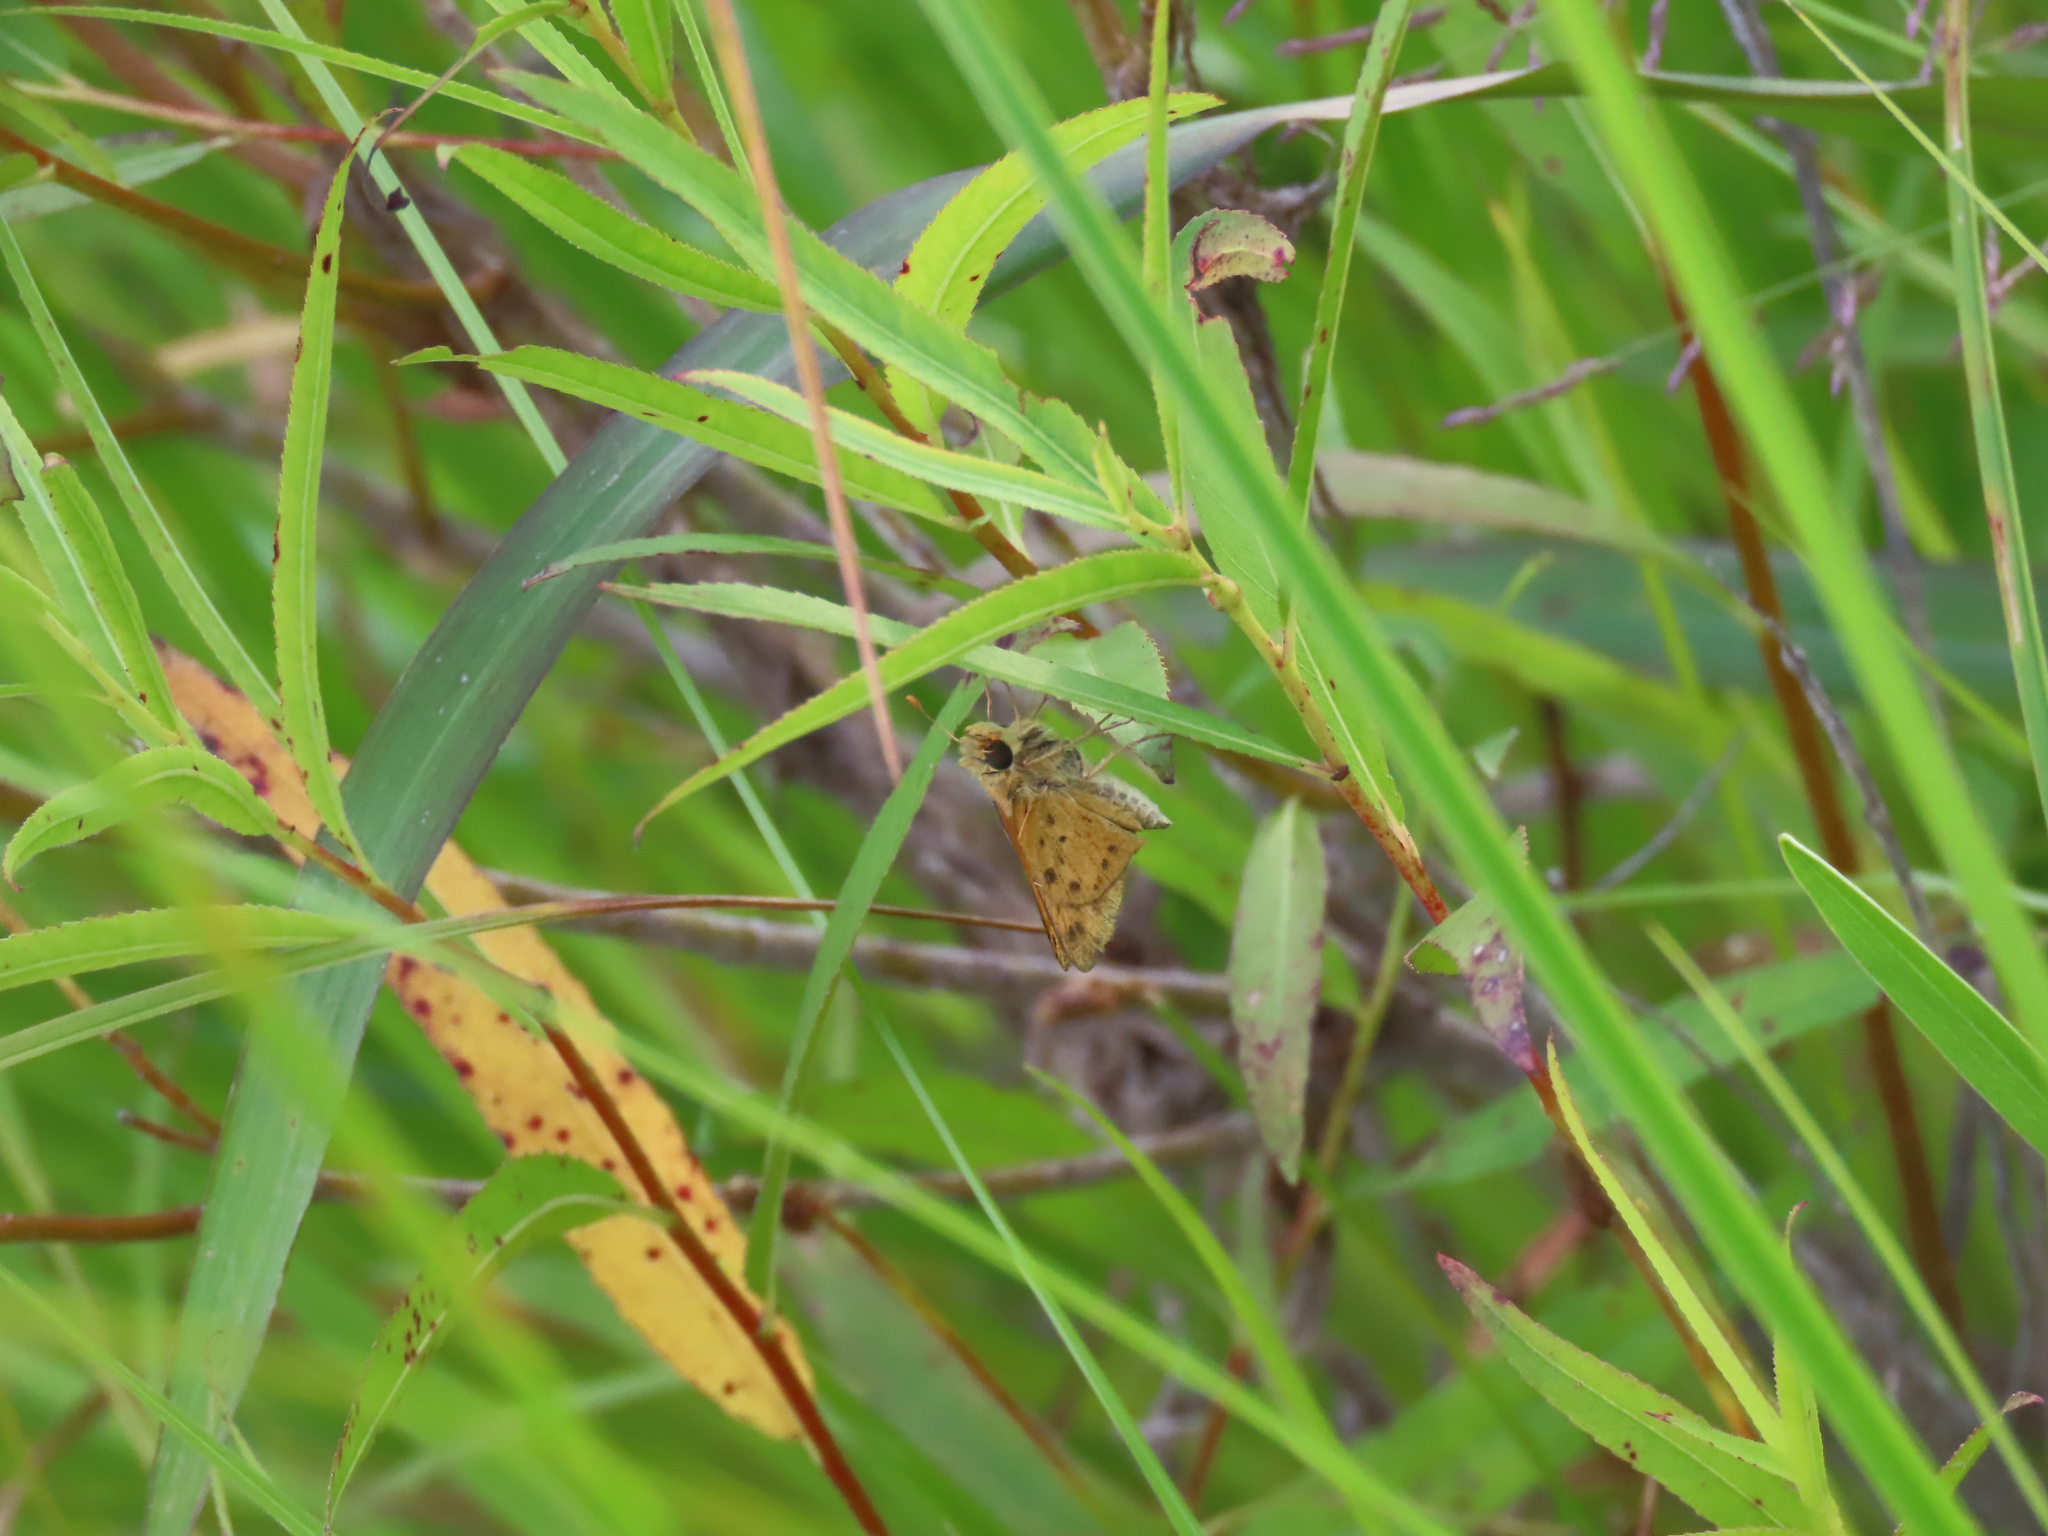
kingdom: Animalia
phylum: Arthropoda
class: Insecta
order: Lepidoptera
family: Hesperiidae
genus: Hylephila
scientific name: Hylephila phyleus
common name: Fiery skipper
